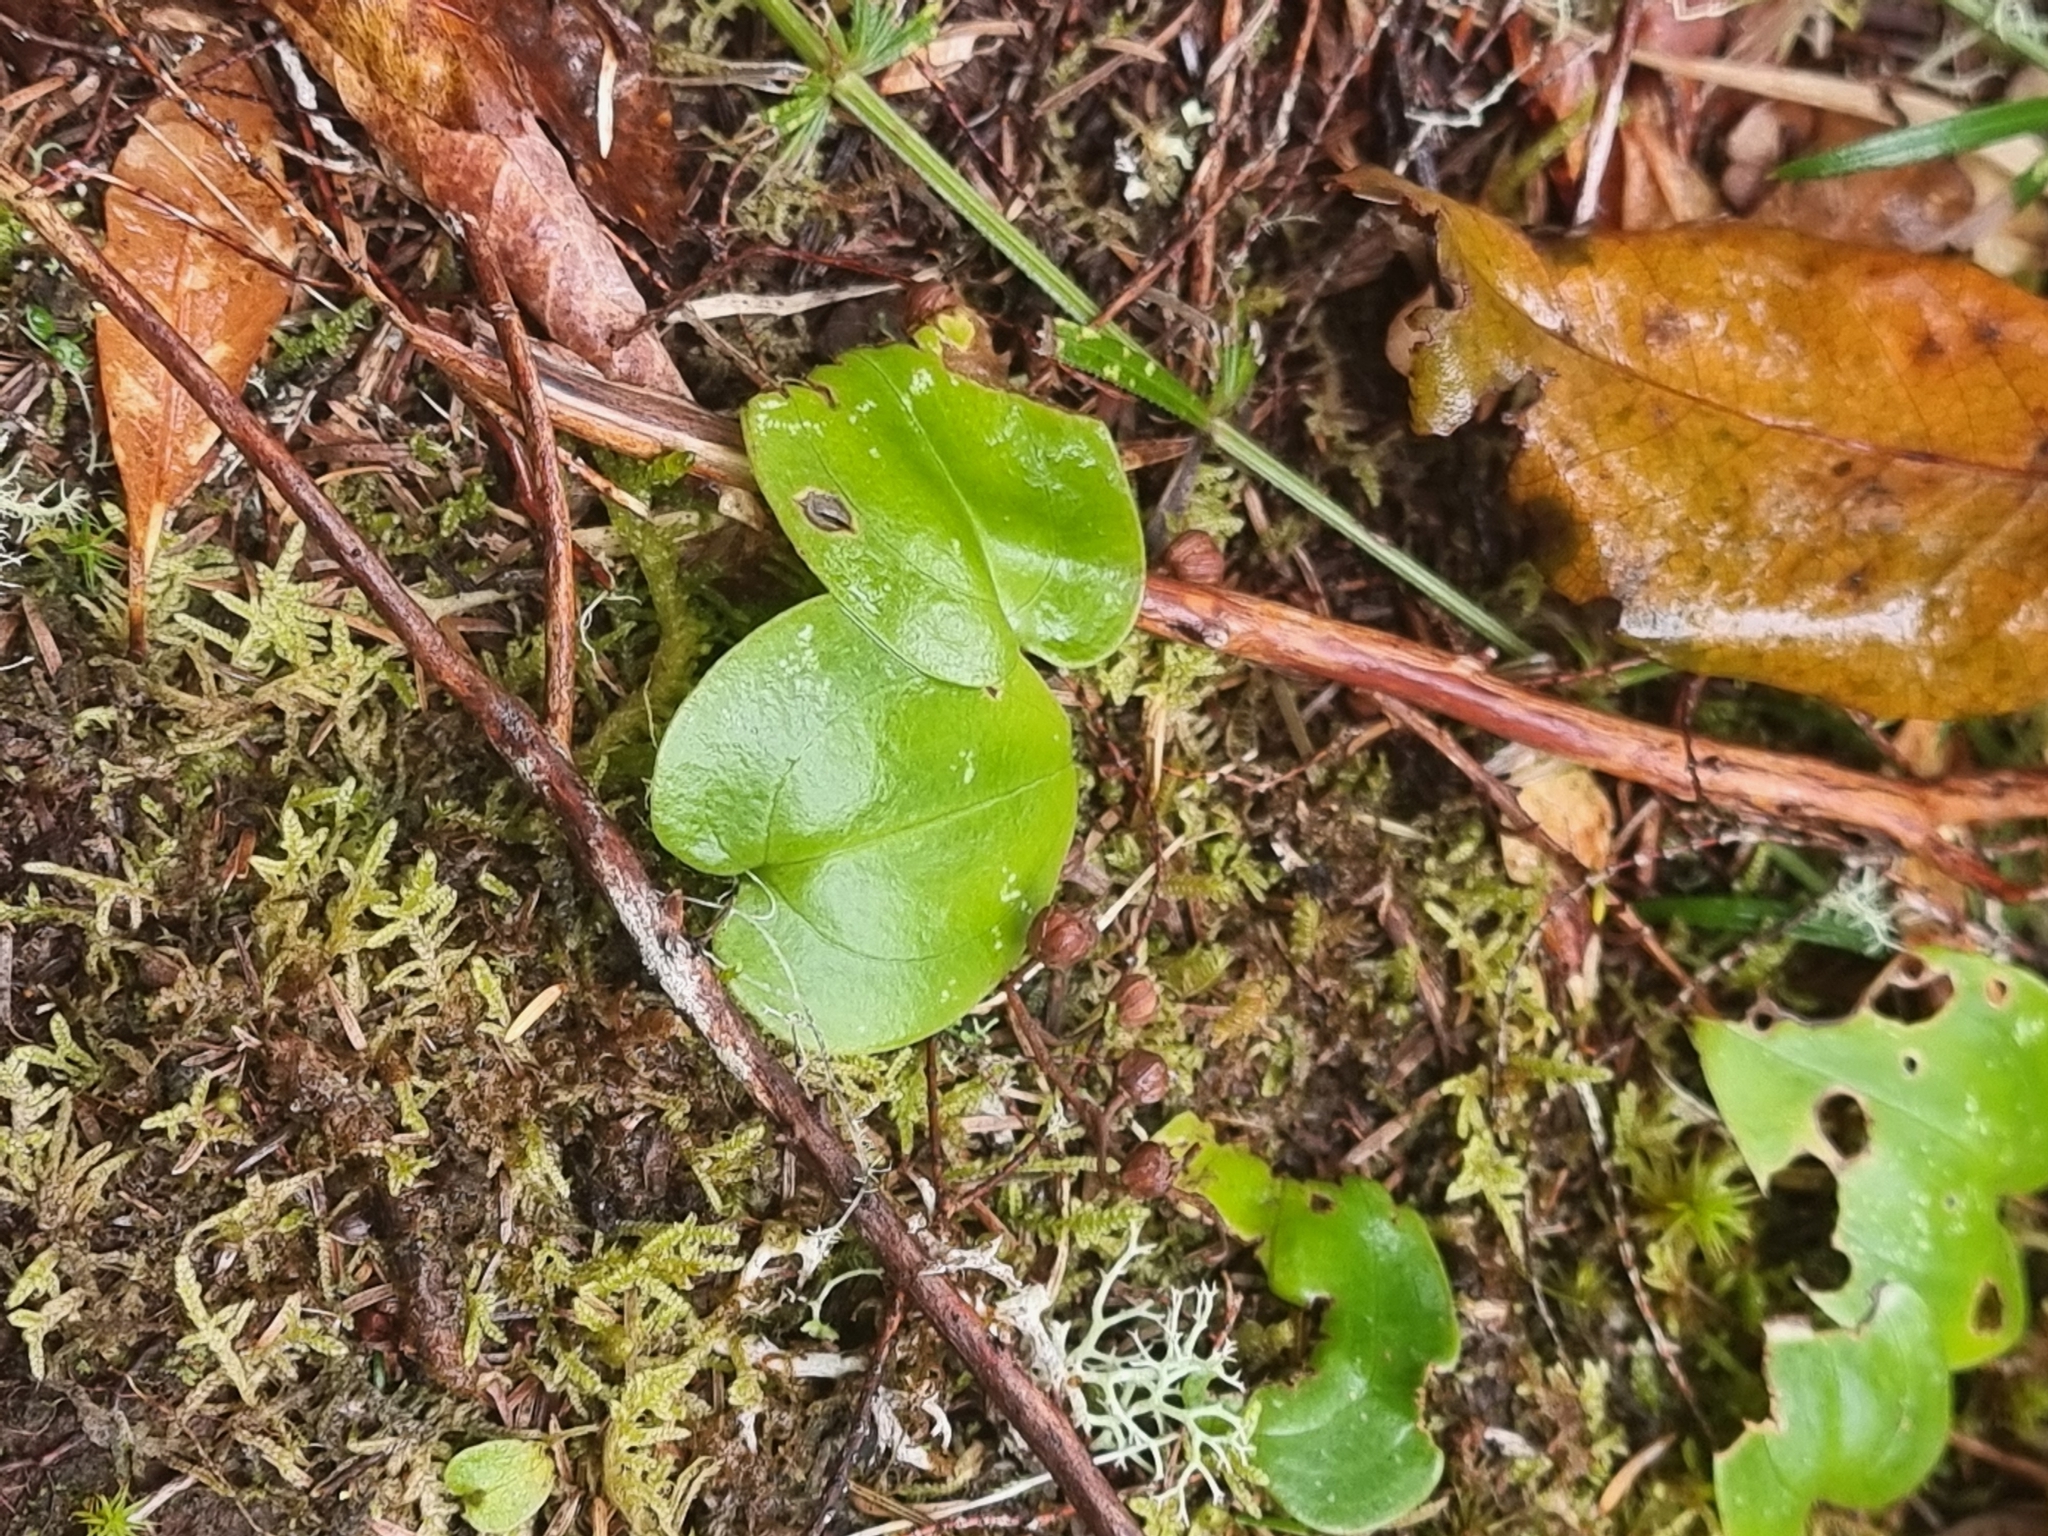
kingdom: Plantae
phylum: Tracheophyta
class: Liliopsida
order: Asparagales
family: Orchidaceae
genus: Gennaria
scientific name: Gennaria diphylla
